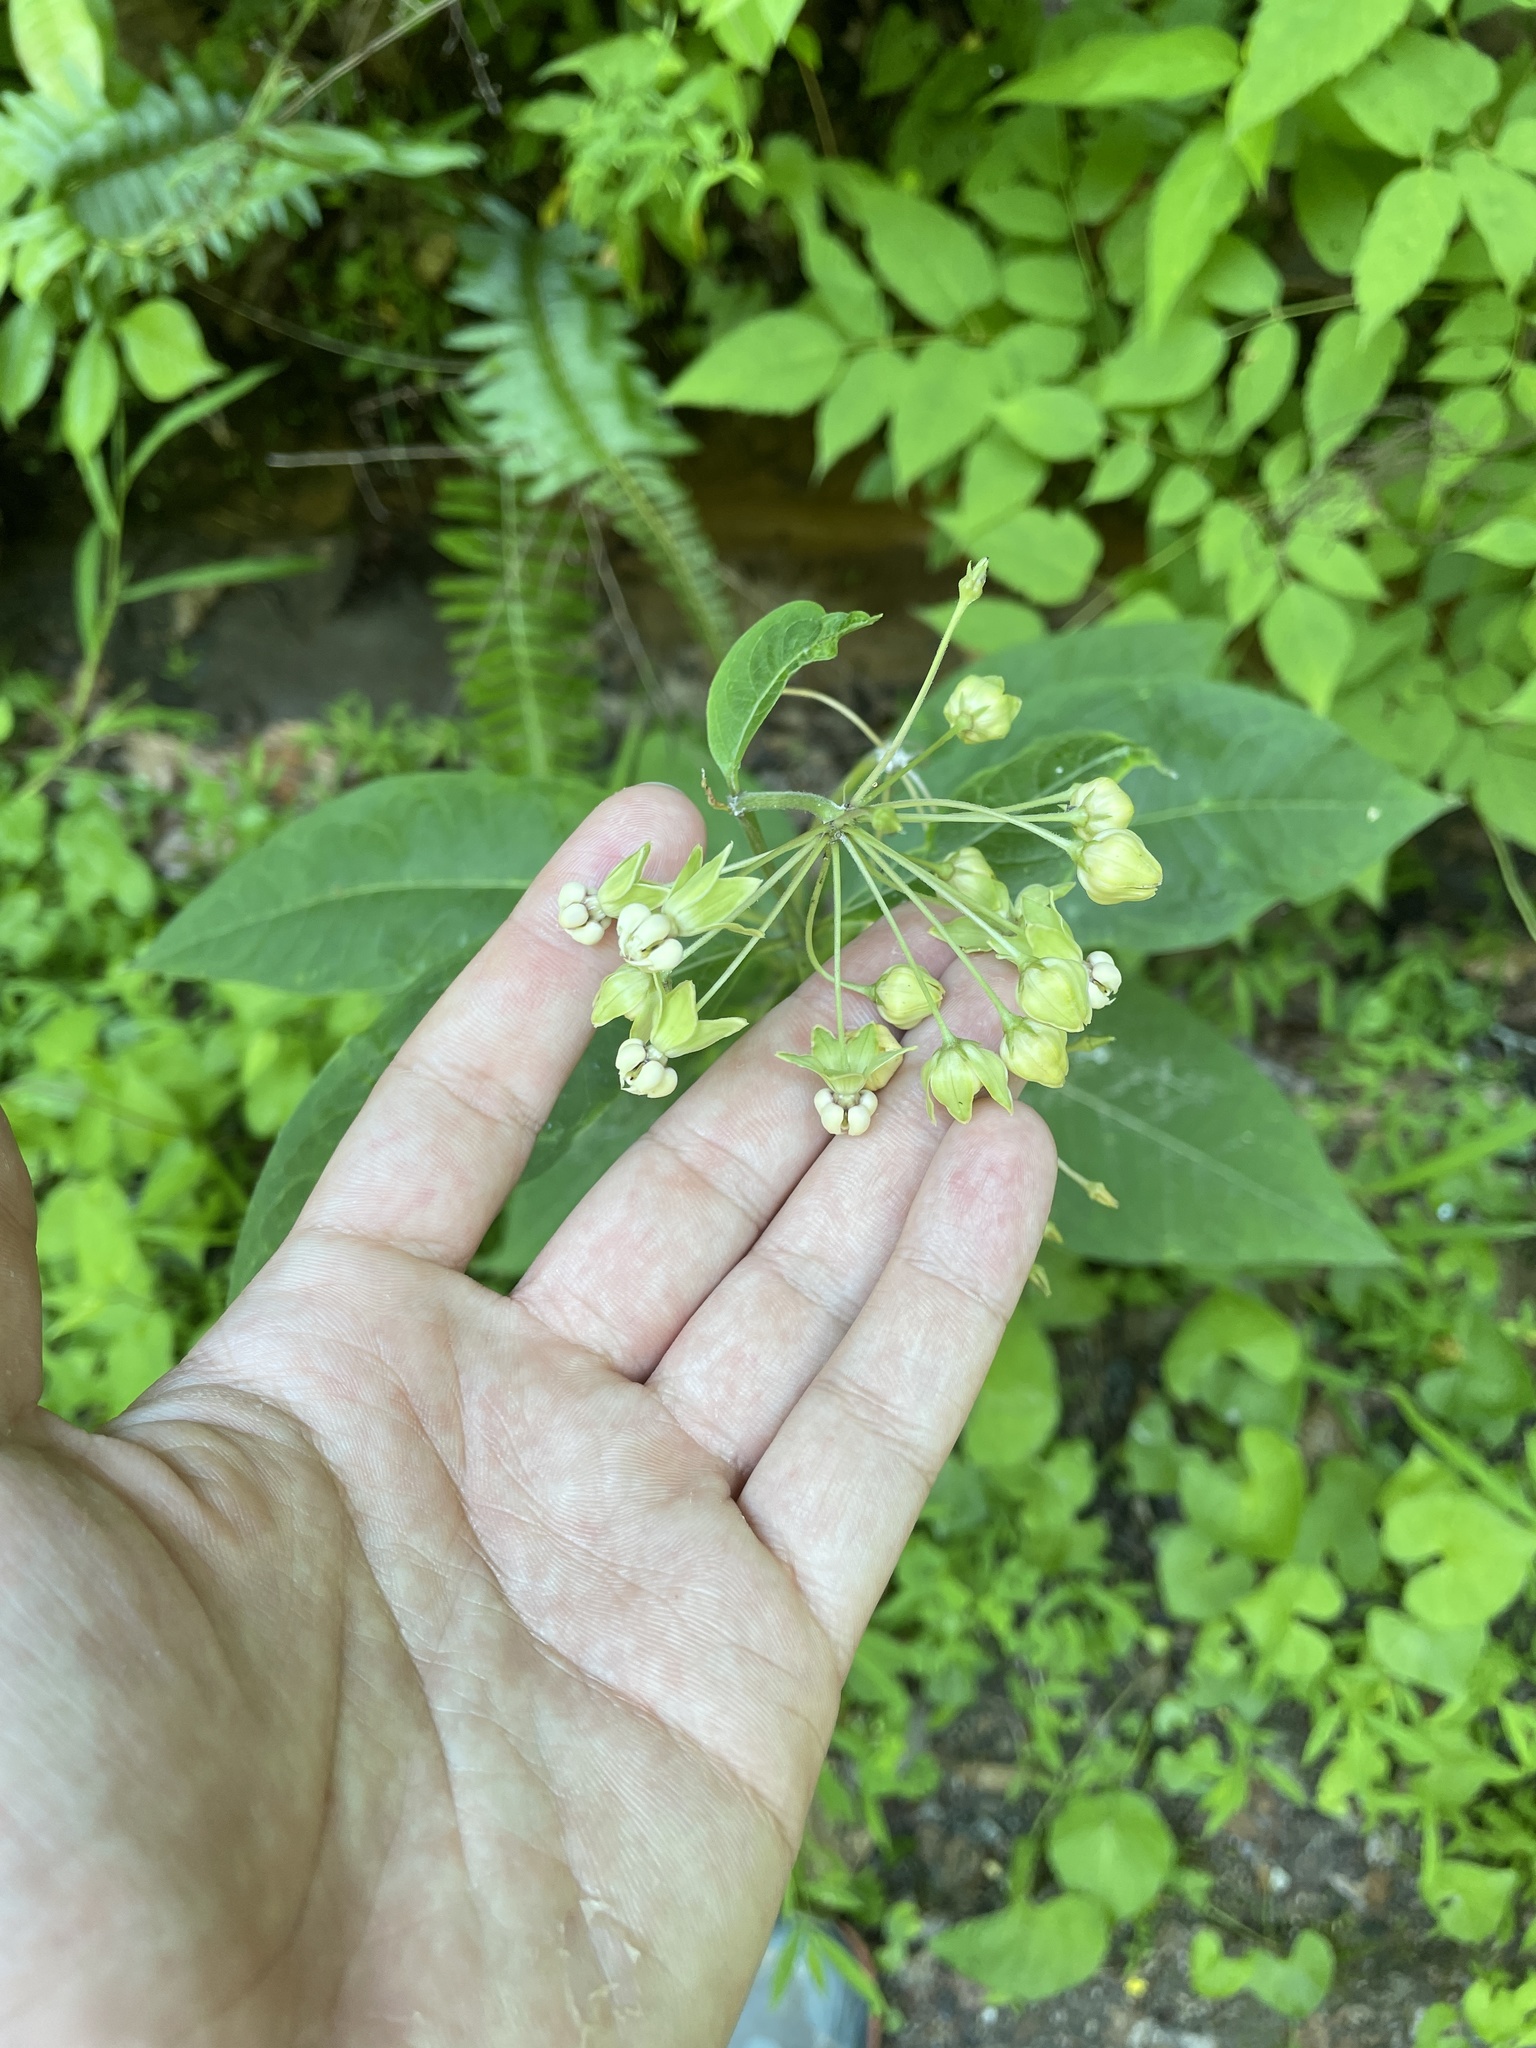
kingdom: Plantae
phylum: Tracheophyta
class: Magnoliopsida
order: Gentianales
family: Apocynaceae
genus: Asclepias
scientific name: Asclepias exaltata
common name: Poke milkweed
